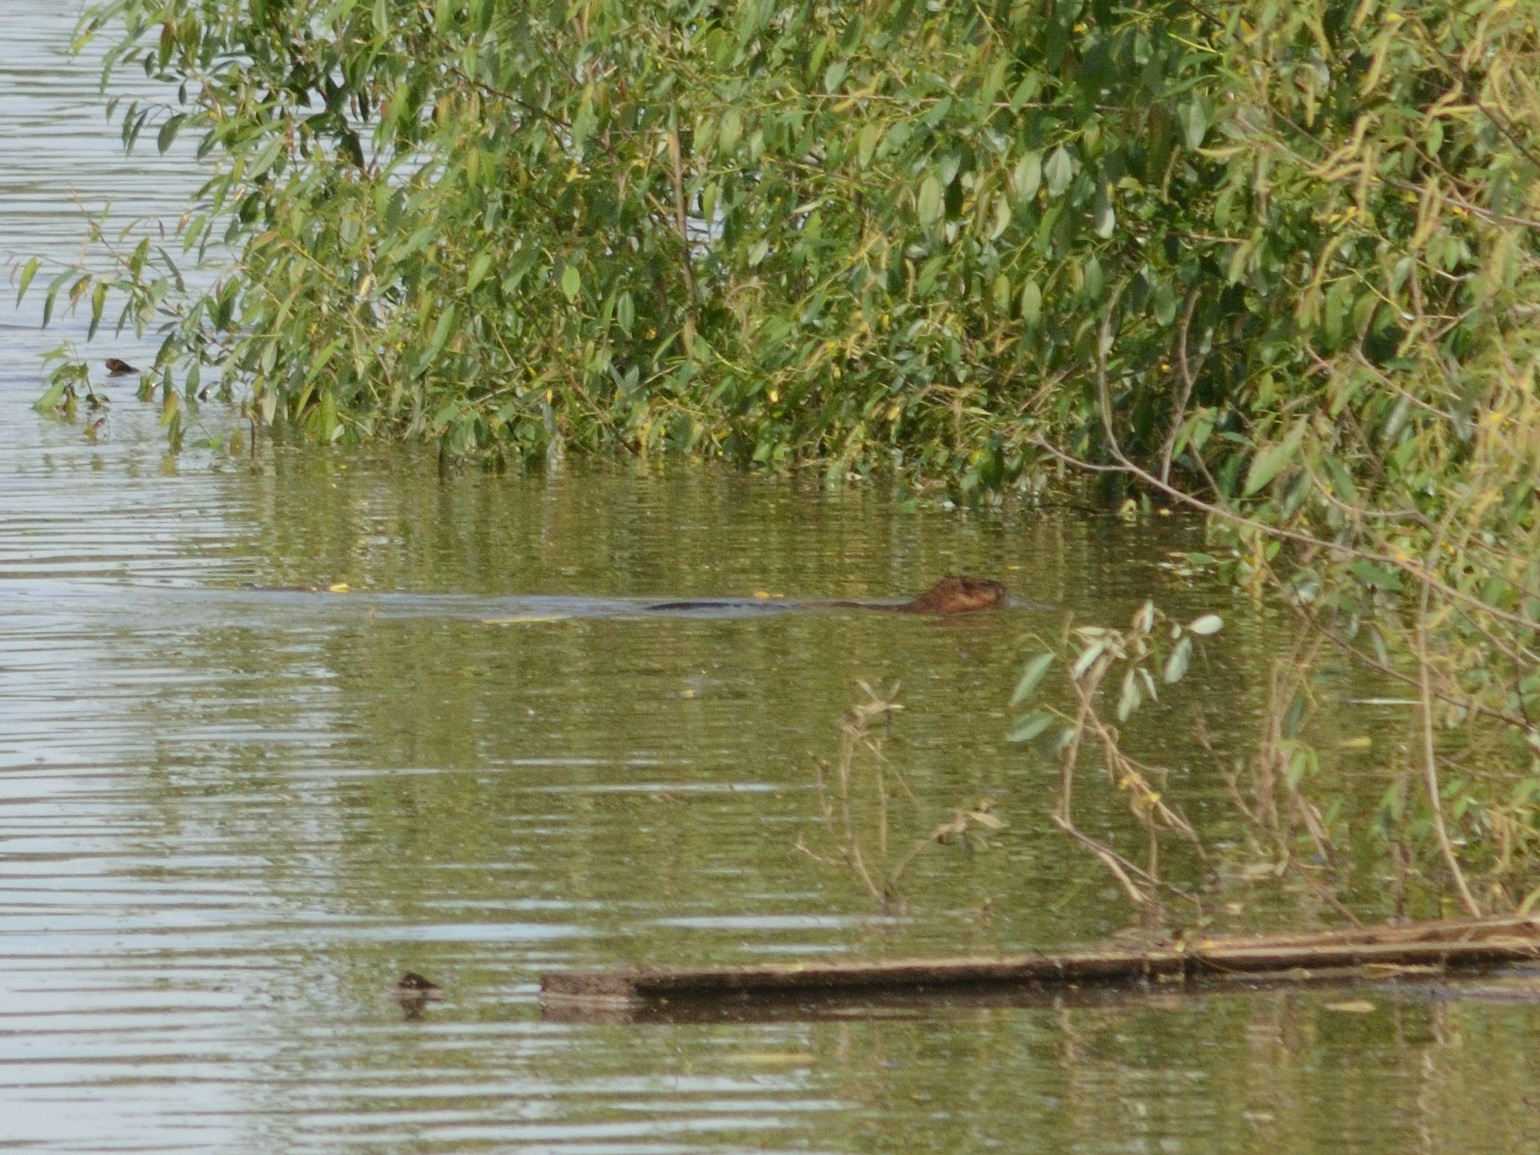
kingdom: Animalia
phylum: Chordata
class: Mammalia
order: Rodentia
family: Cricetidae
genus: Ondatra
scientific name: Ondatra zibethicus
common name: Muskrat
